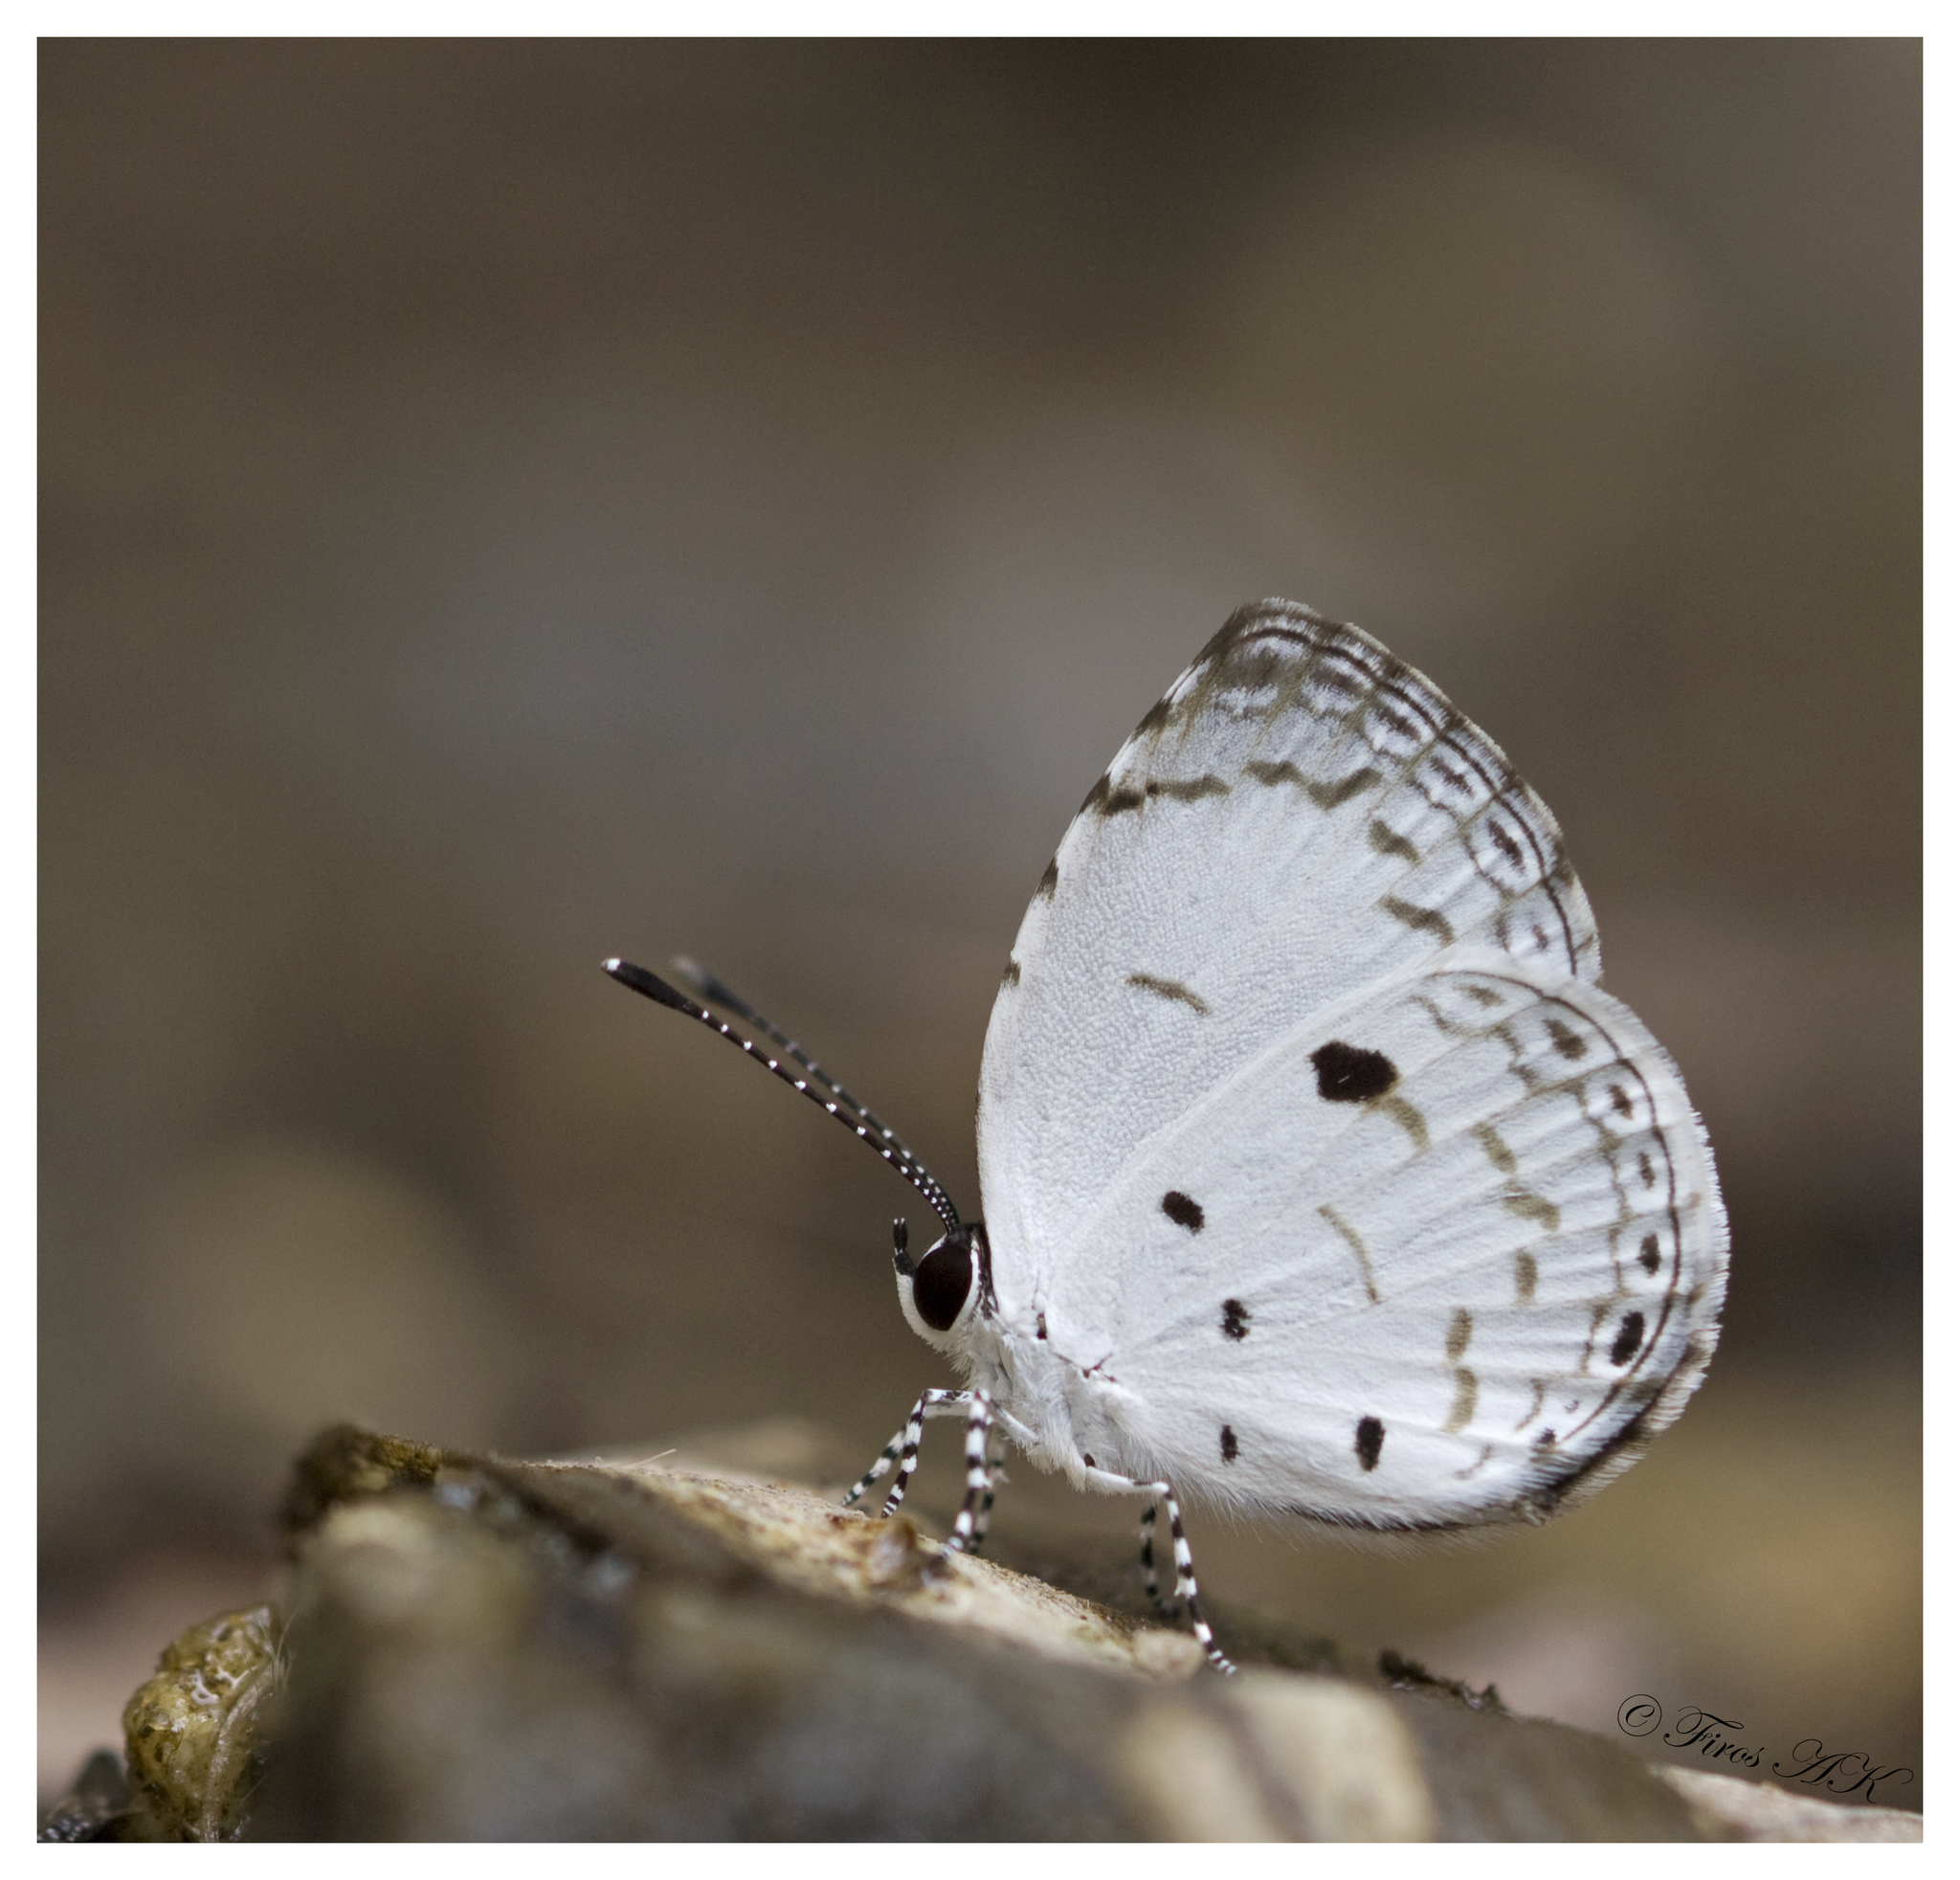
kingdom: Animalia
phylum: Arthropoda
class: Insecta
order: Lepidoptera
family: Lycaenidae
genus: Neopithecops
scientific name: Neopithecops zalmora
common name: Quaker
